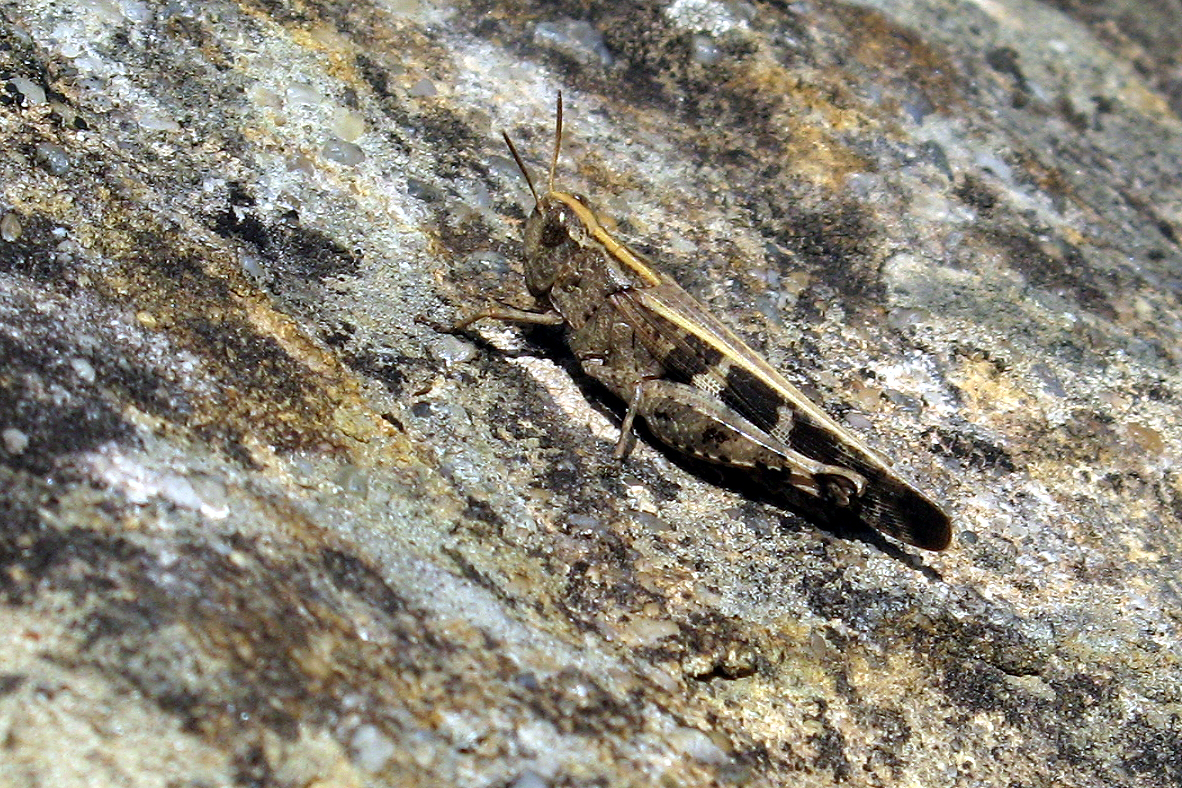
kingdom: Animalia
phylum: Arthropoda
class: Insecta
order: Orthoptera
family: Acrididae
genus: Aiolopus
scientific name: Aiolopus strepens
